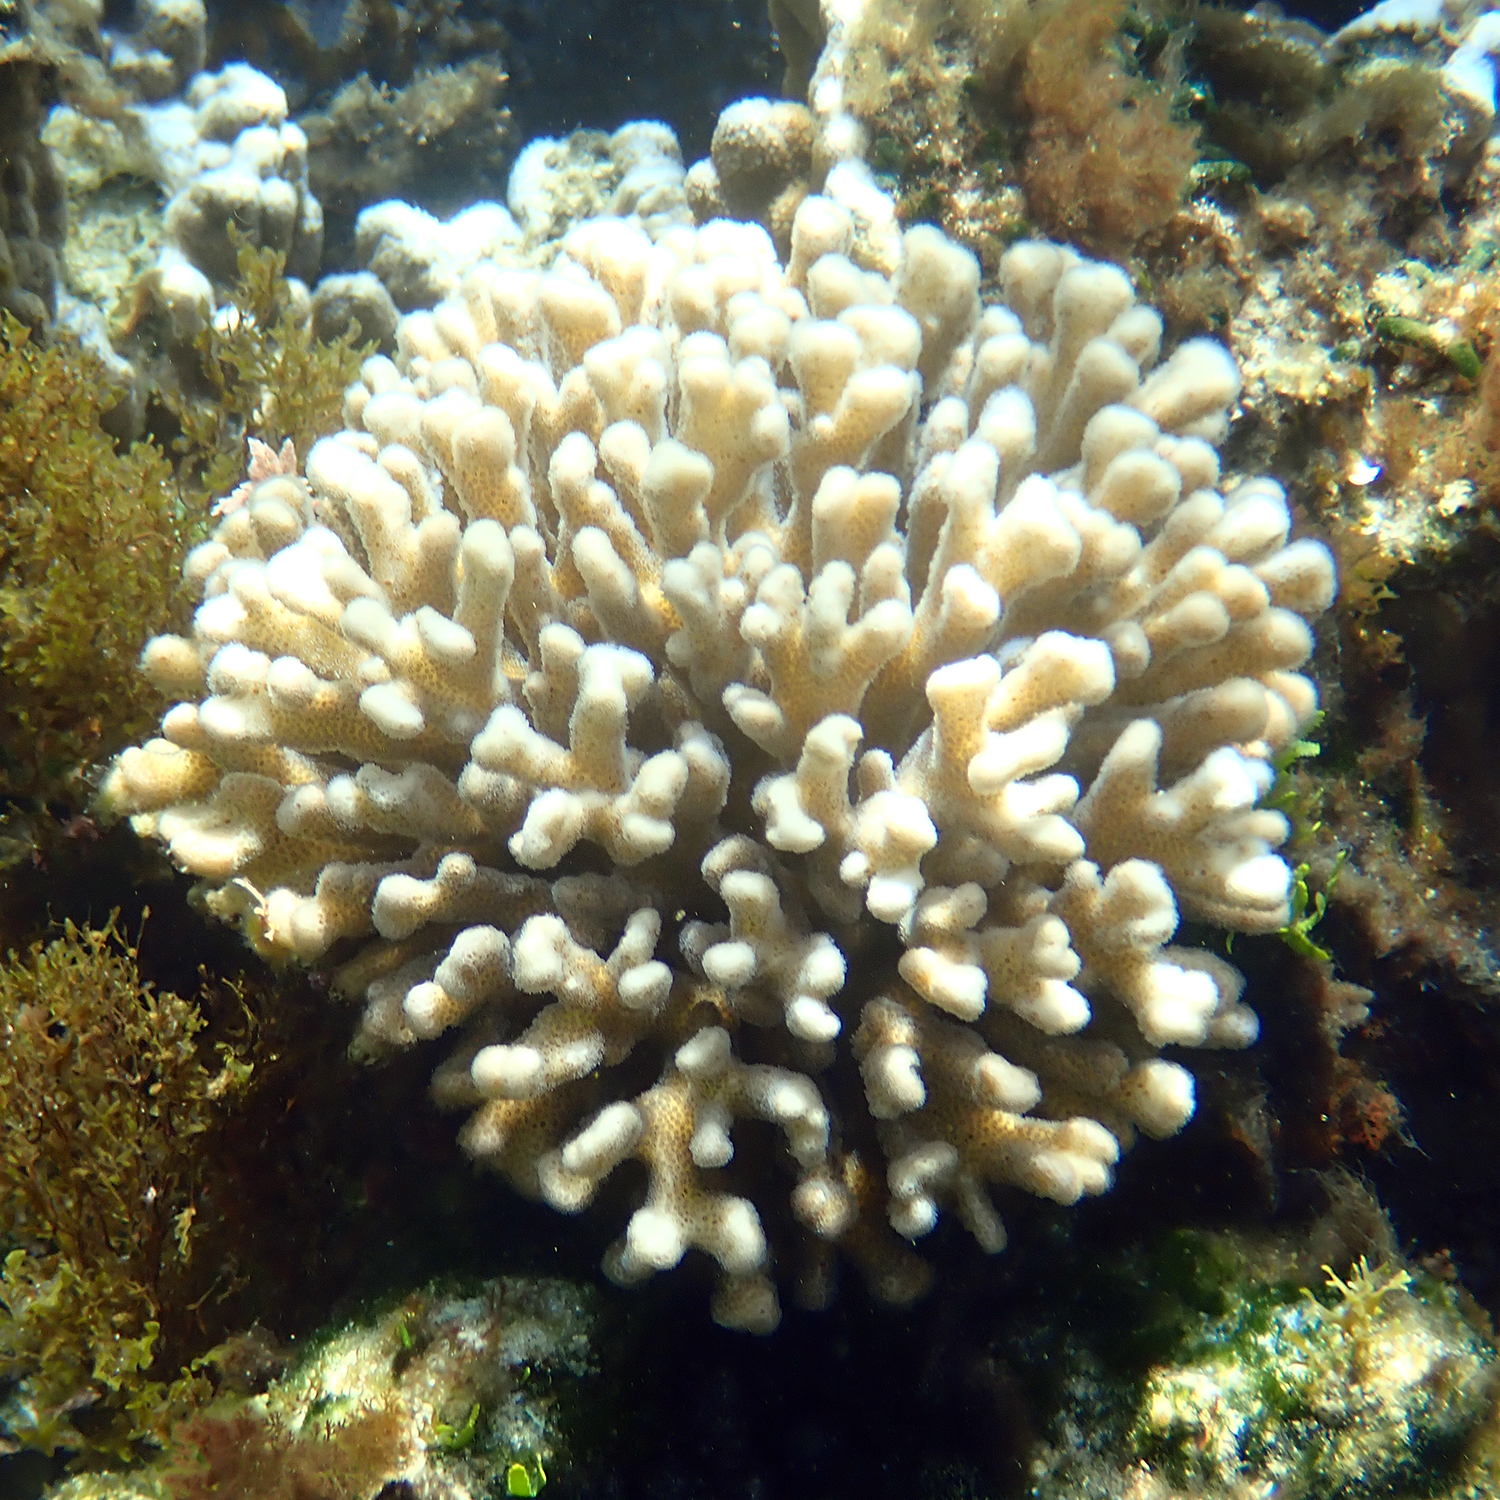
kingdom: Animalia
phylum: Cnidaria
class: Anthozoa
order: Scleractinia
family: Pocilloporidae
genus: Pocillopora
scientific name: Pocillopora damicornis
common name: Cauliflower coral
